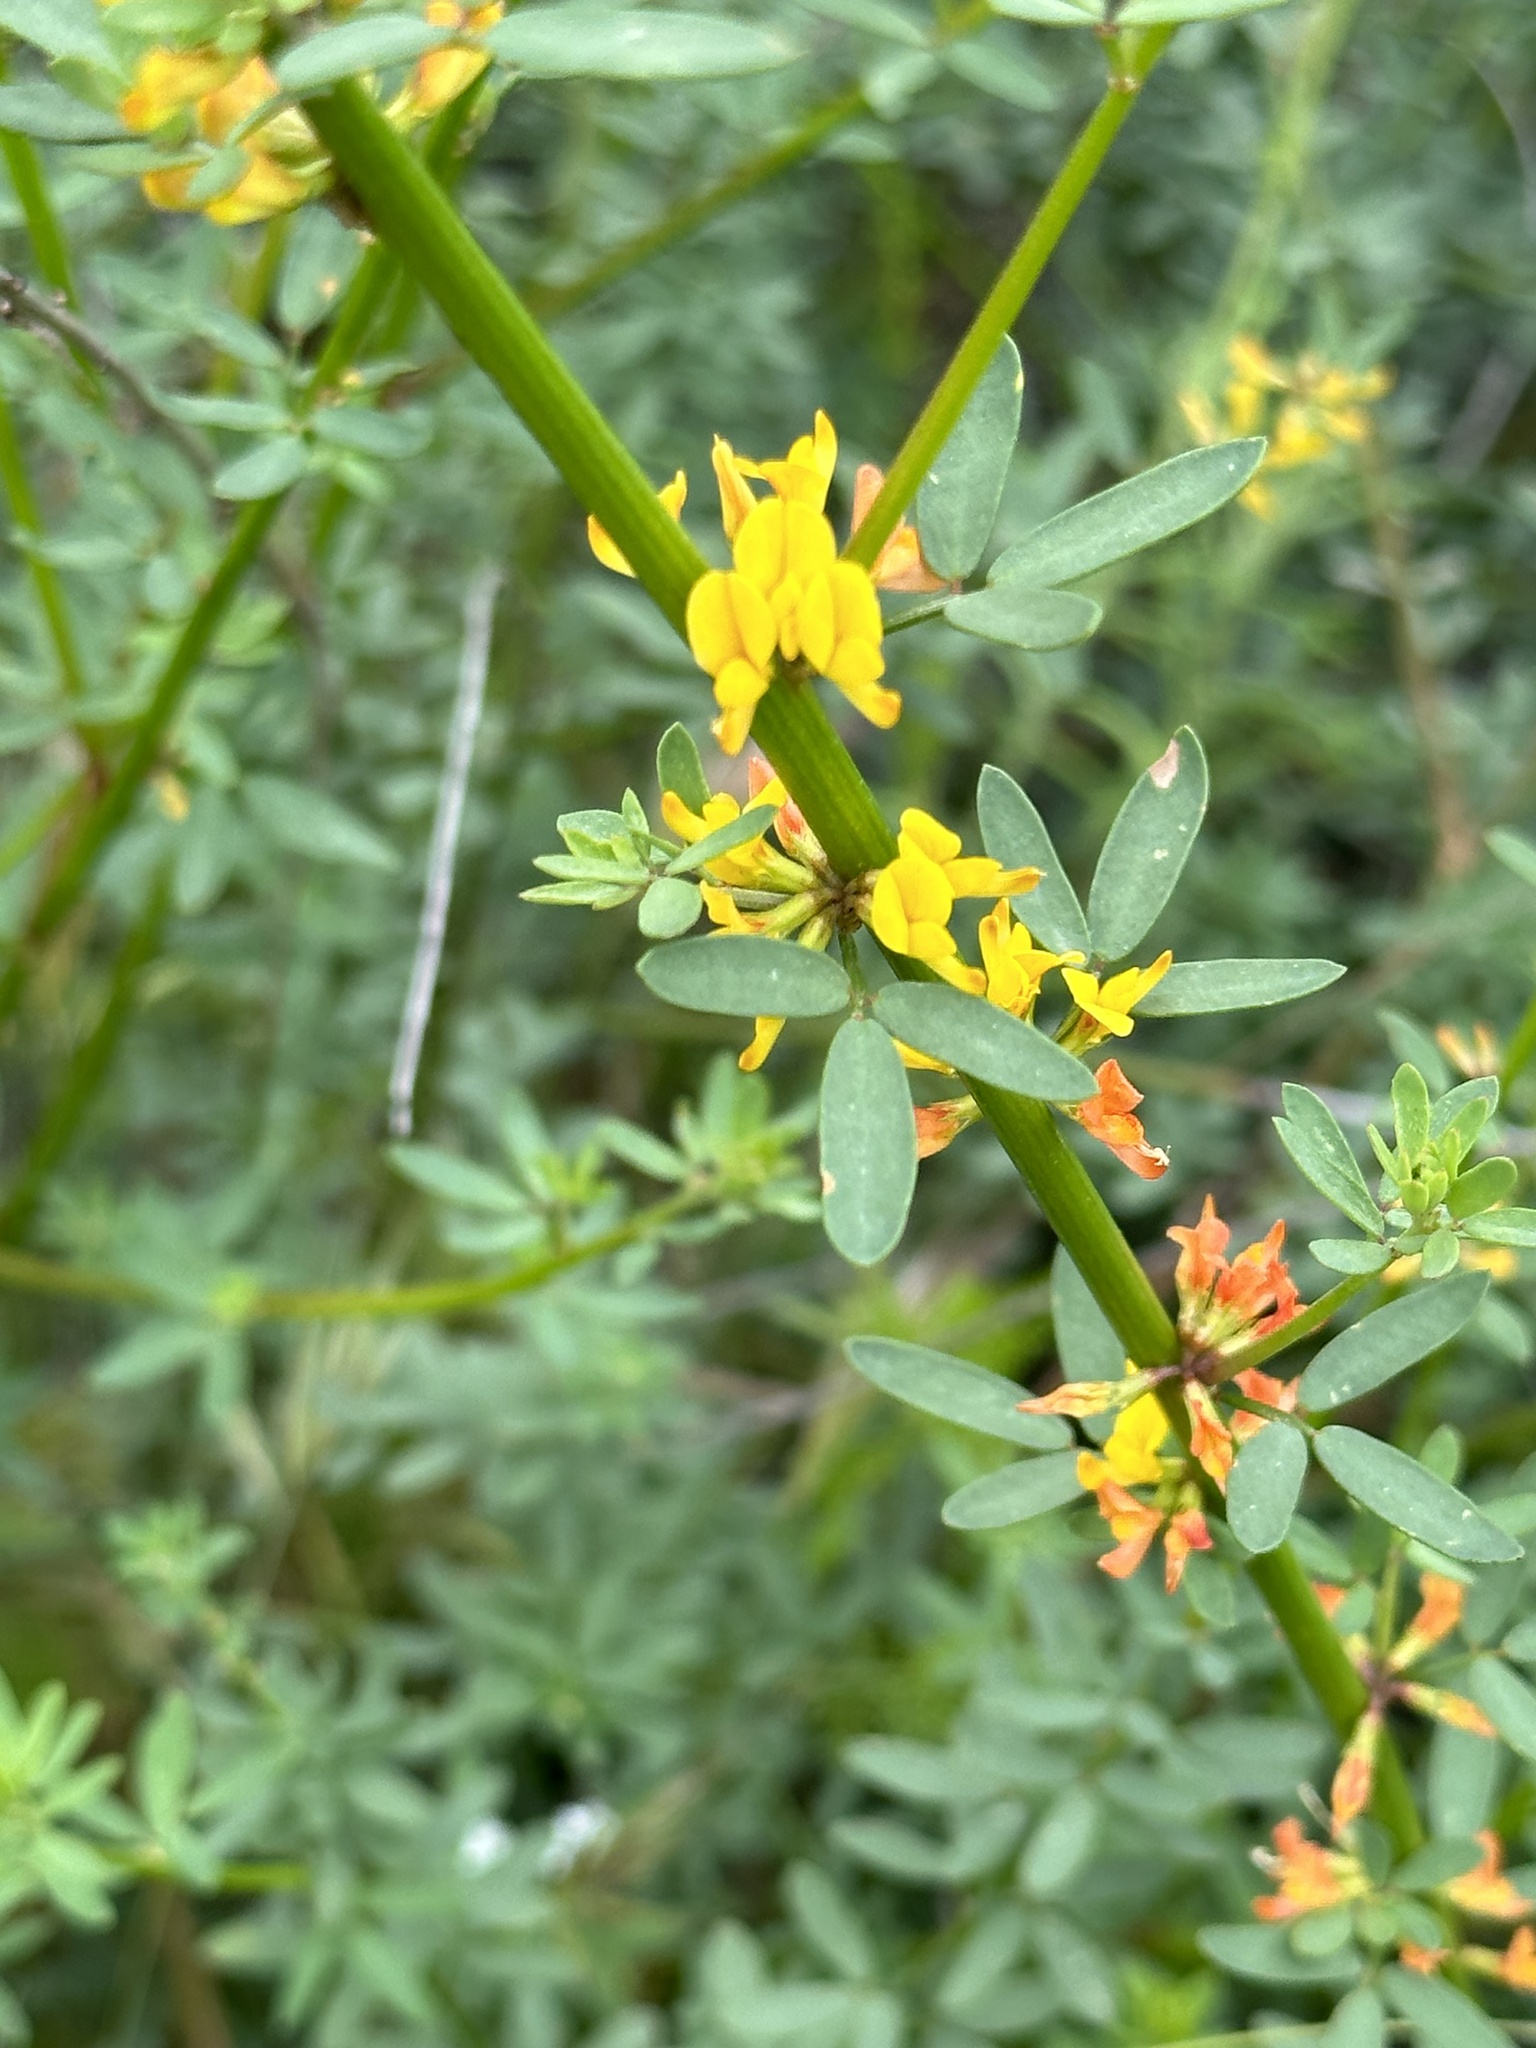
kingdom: Plantae
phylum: Tracheophyta
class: Magnoliopsida
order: Fabales
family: Fabaceae
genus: Acmispon
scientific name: Acmispon glaber
